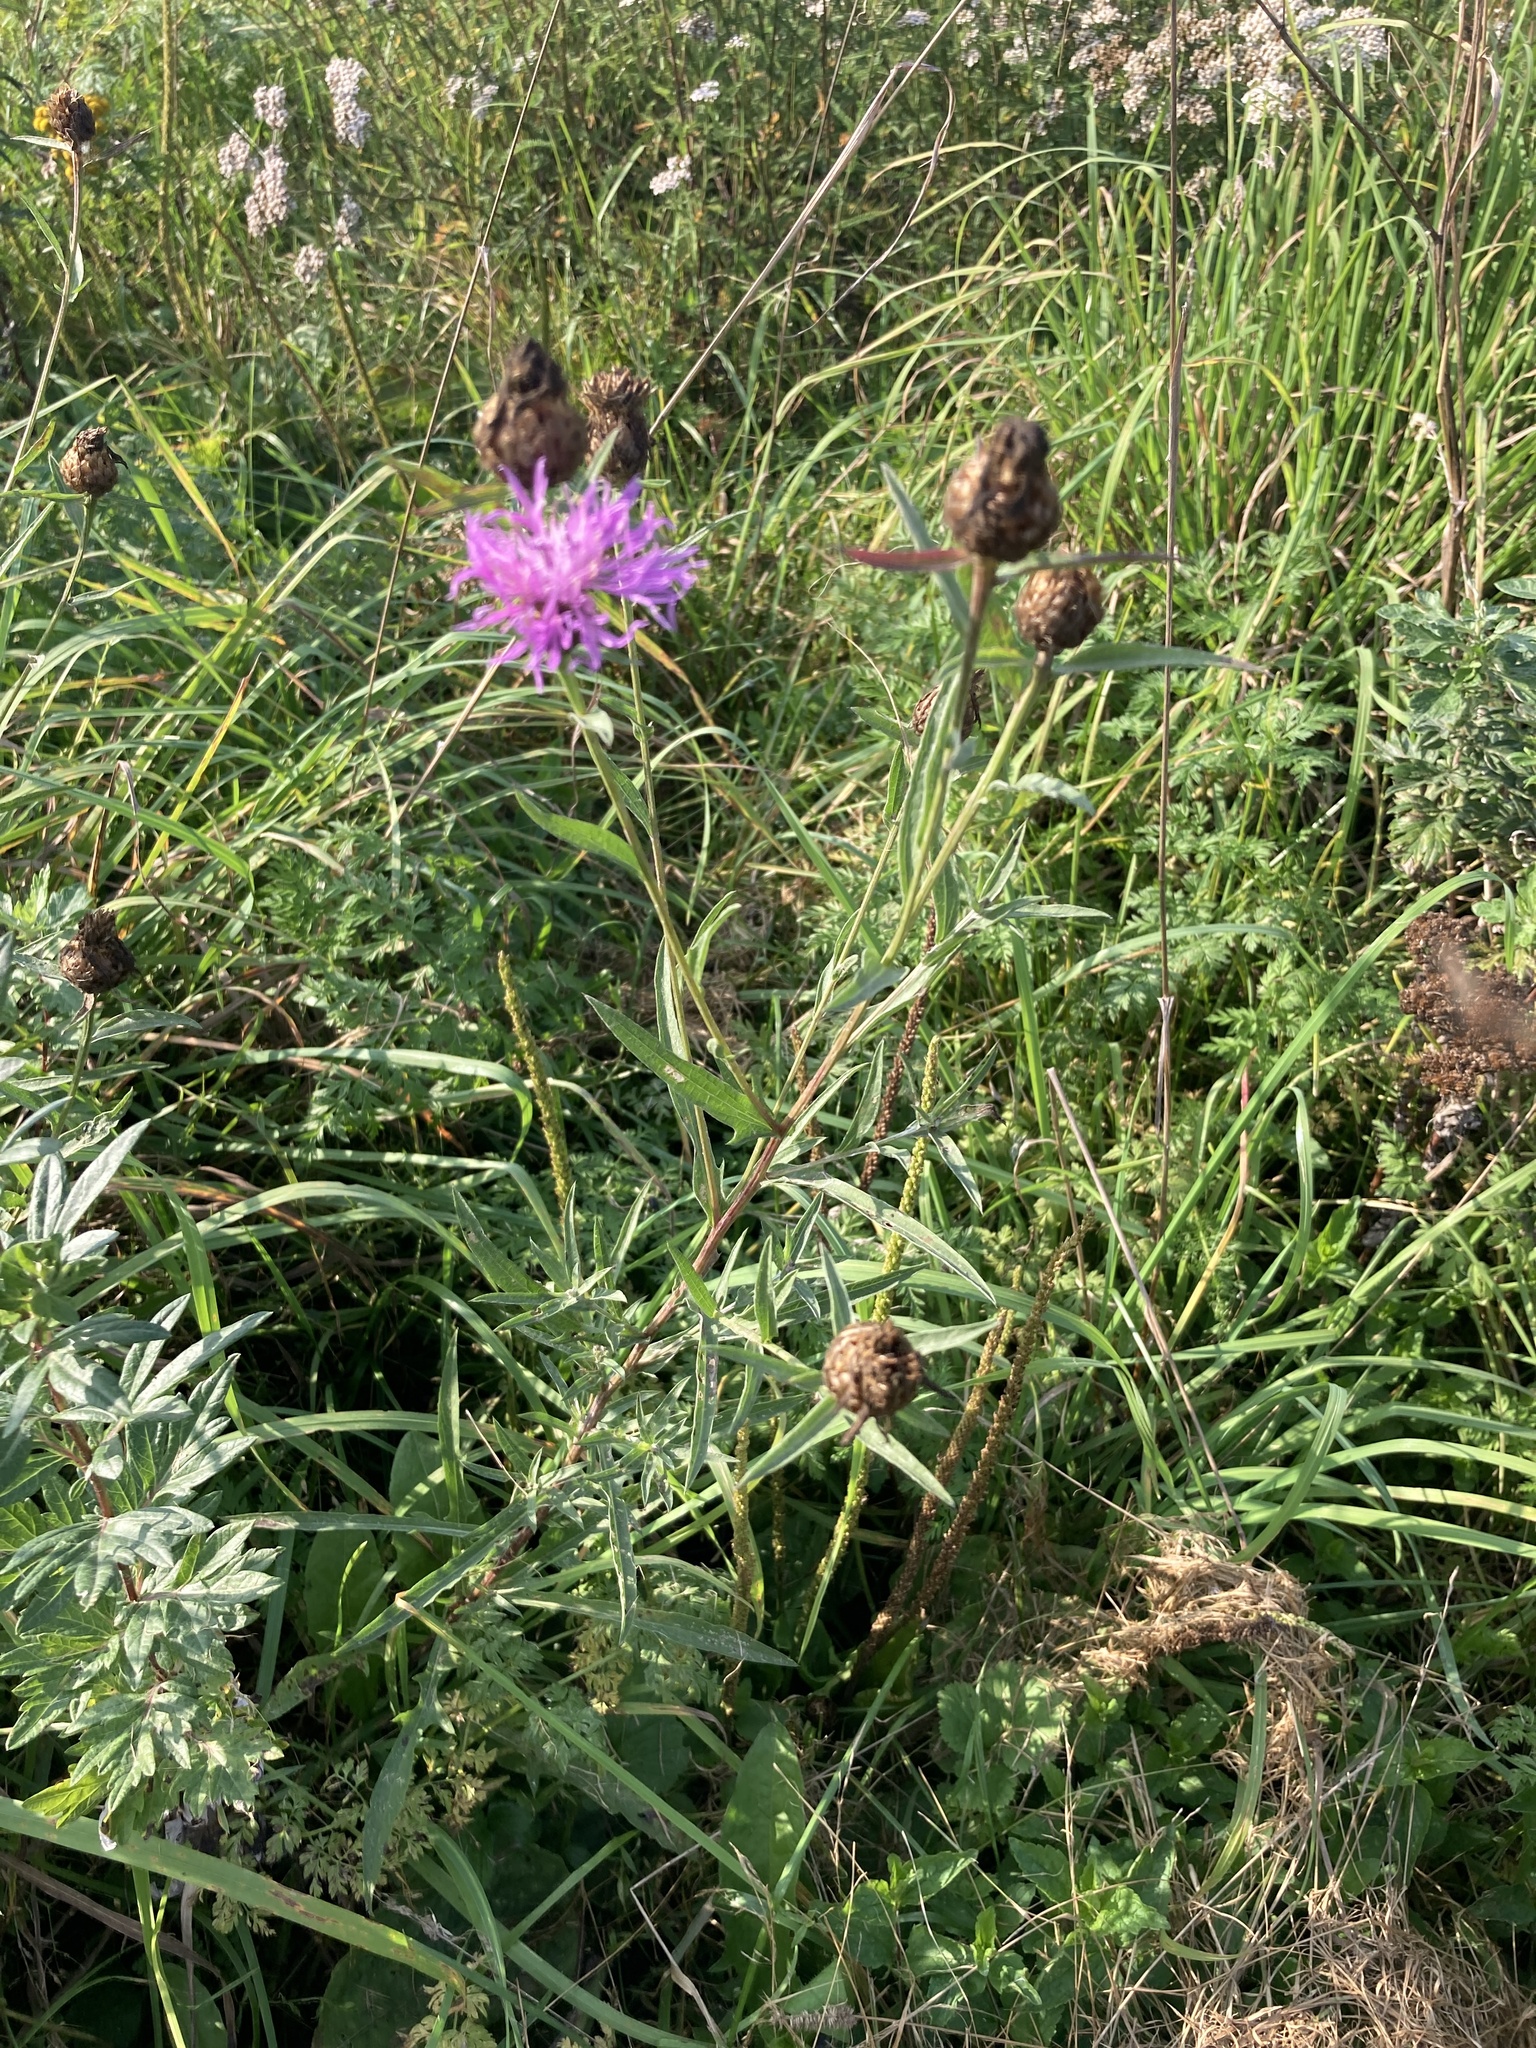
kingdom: Plantae
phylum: Tracheophyta
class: Magnoliopsida
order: Asterales
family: Asteraceae
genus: Centaurea
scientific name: Centaurea jacea
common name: Brown knapweed
